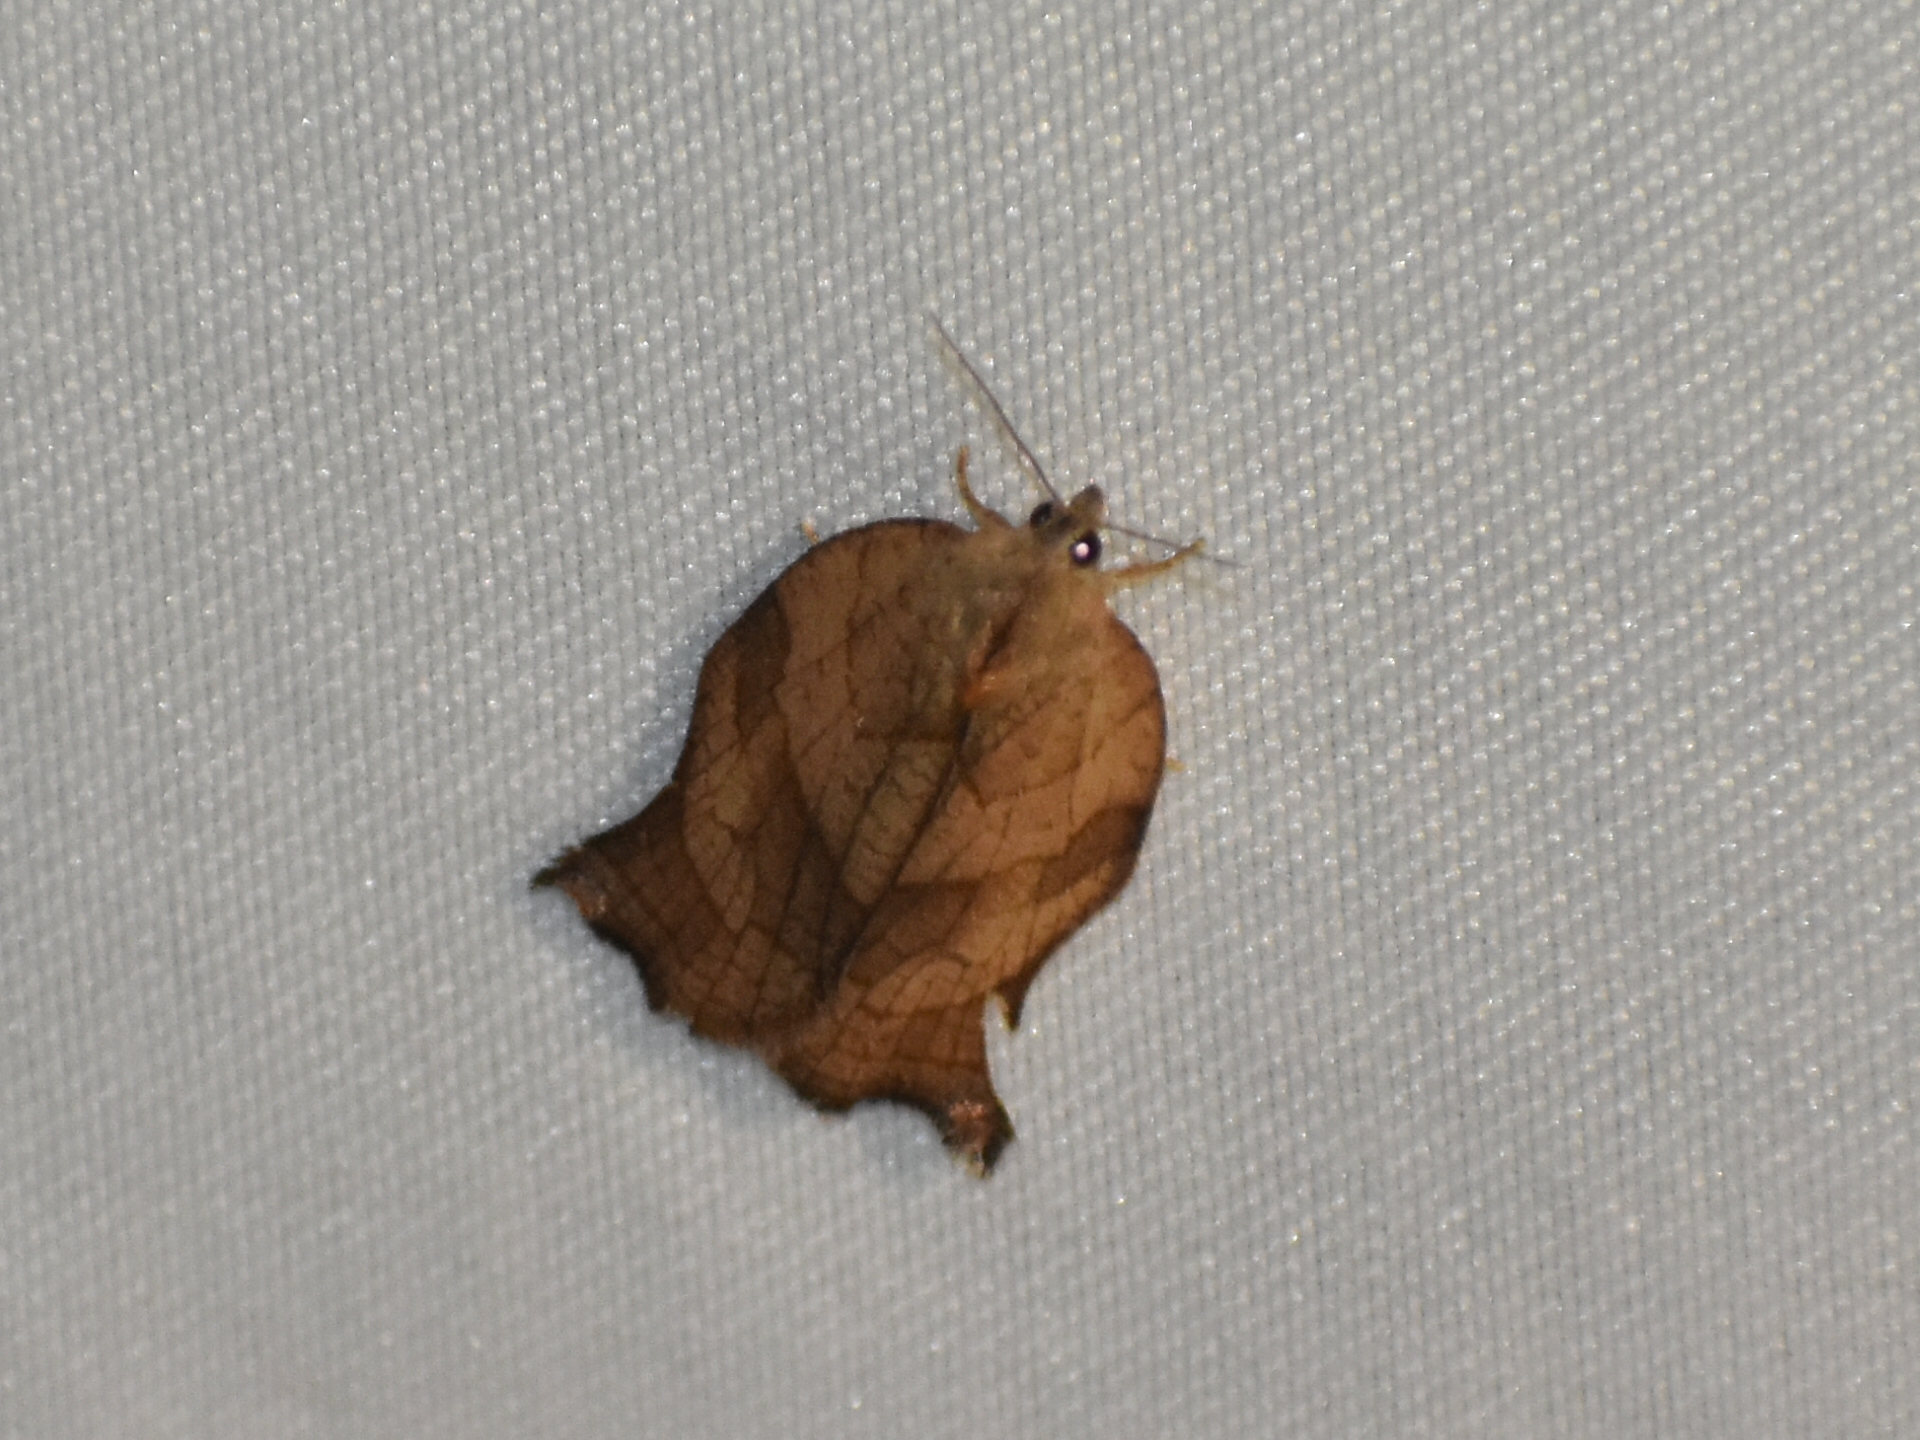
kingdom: Animalia
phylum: Arthropoda
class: Insecta
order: Lepidoptera
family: Tortricidae
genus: Archips
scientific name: Archips purpurana
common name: Omnivorous leafroller
